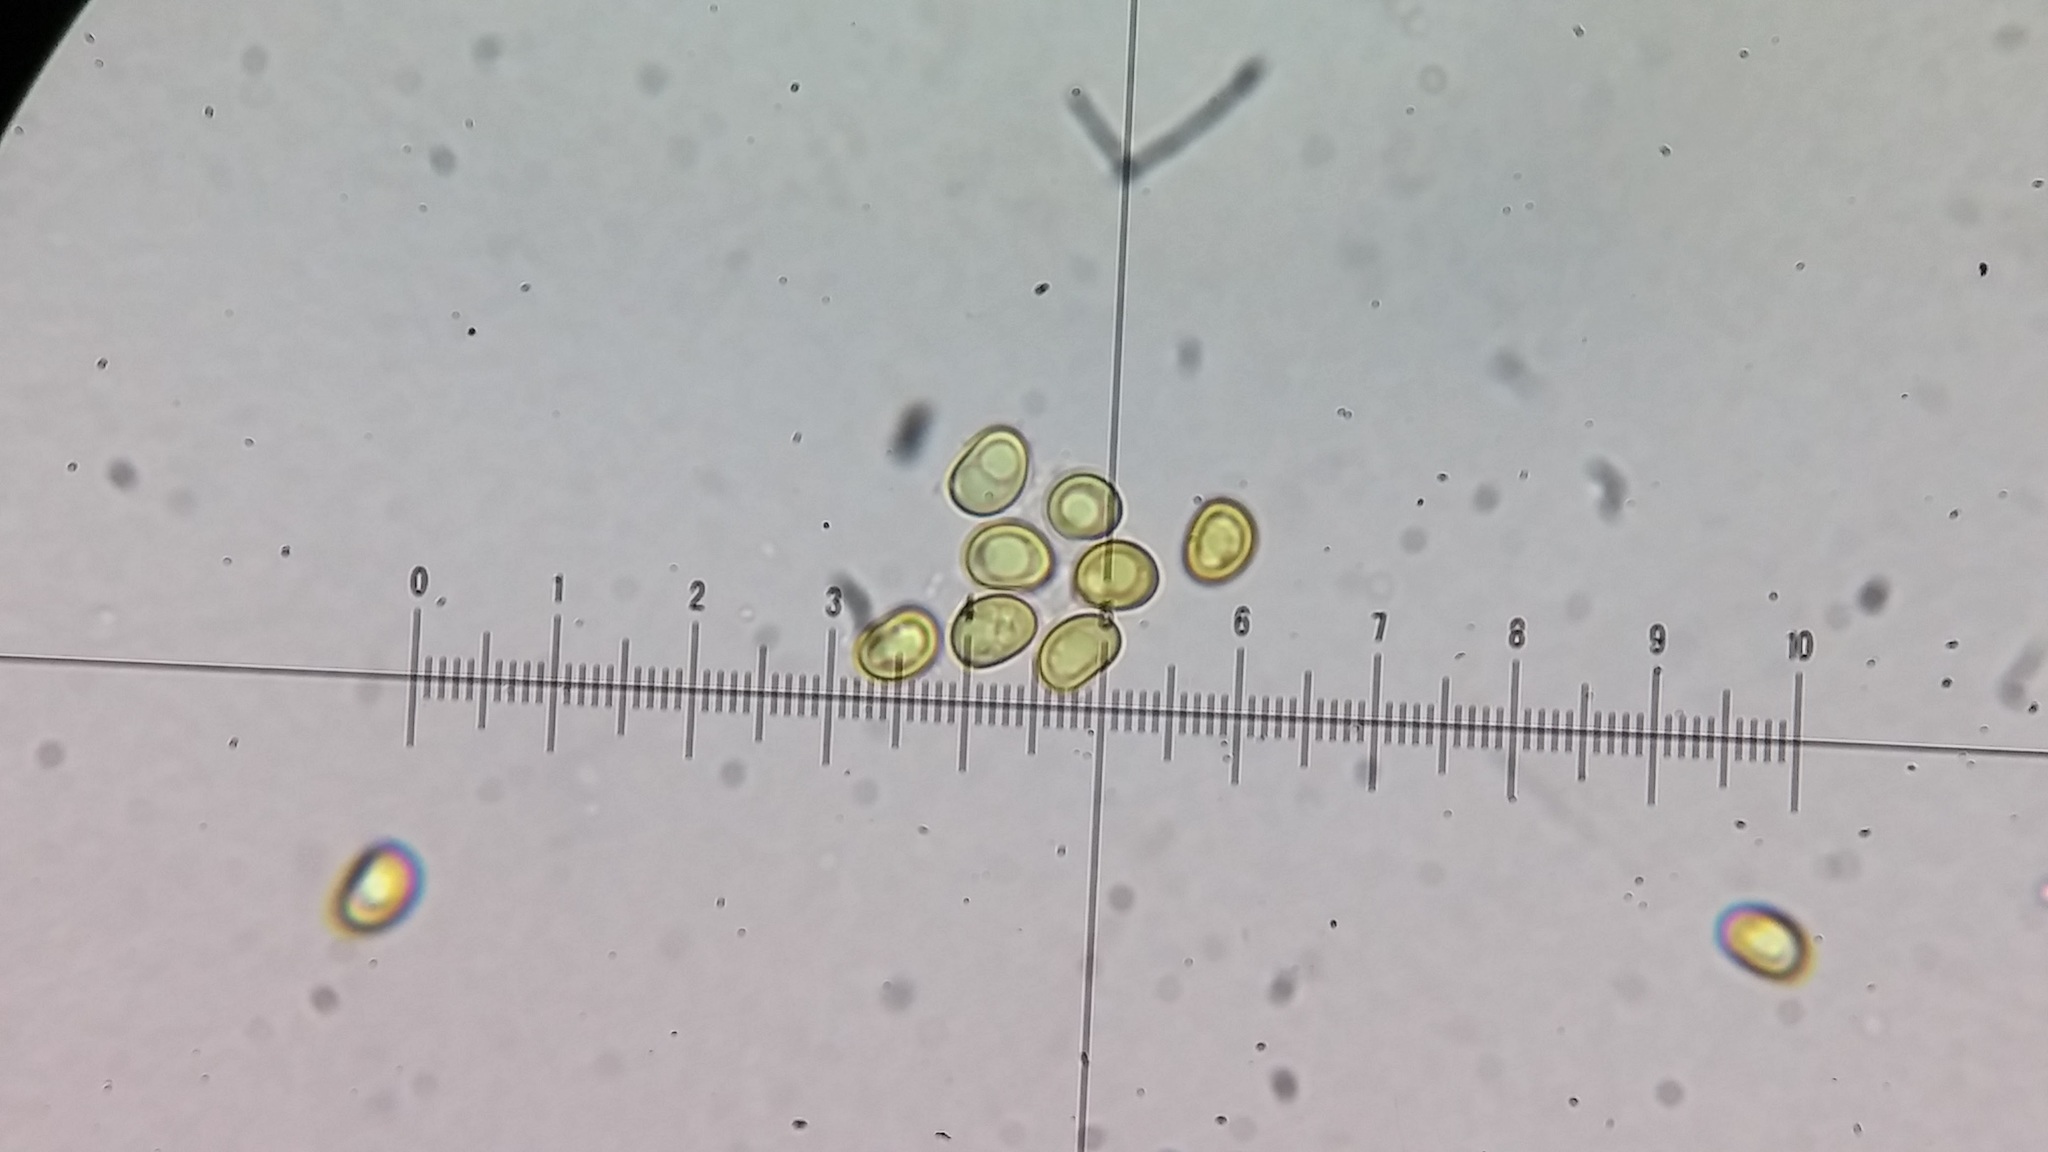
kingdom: Fungi
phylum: Basidiomycota
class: Agaricomycetes
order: Hymenochaetales
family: Hymenochaetaceae
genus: Rigidonotus
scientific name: Rigidonotus glomeratus
